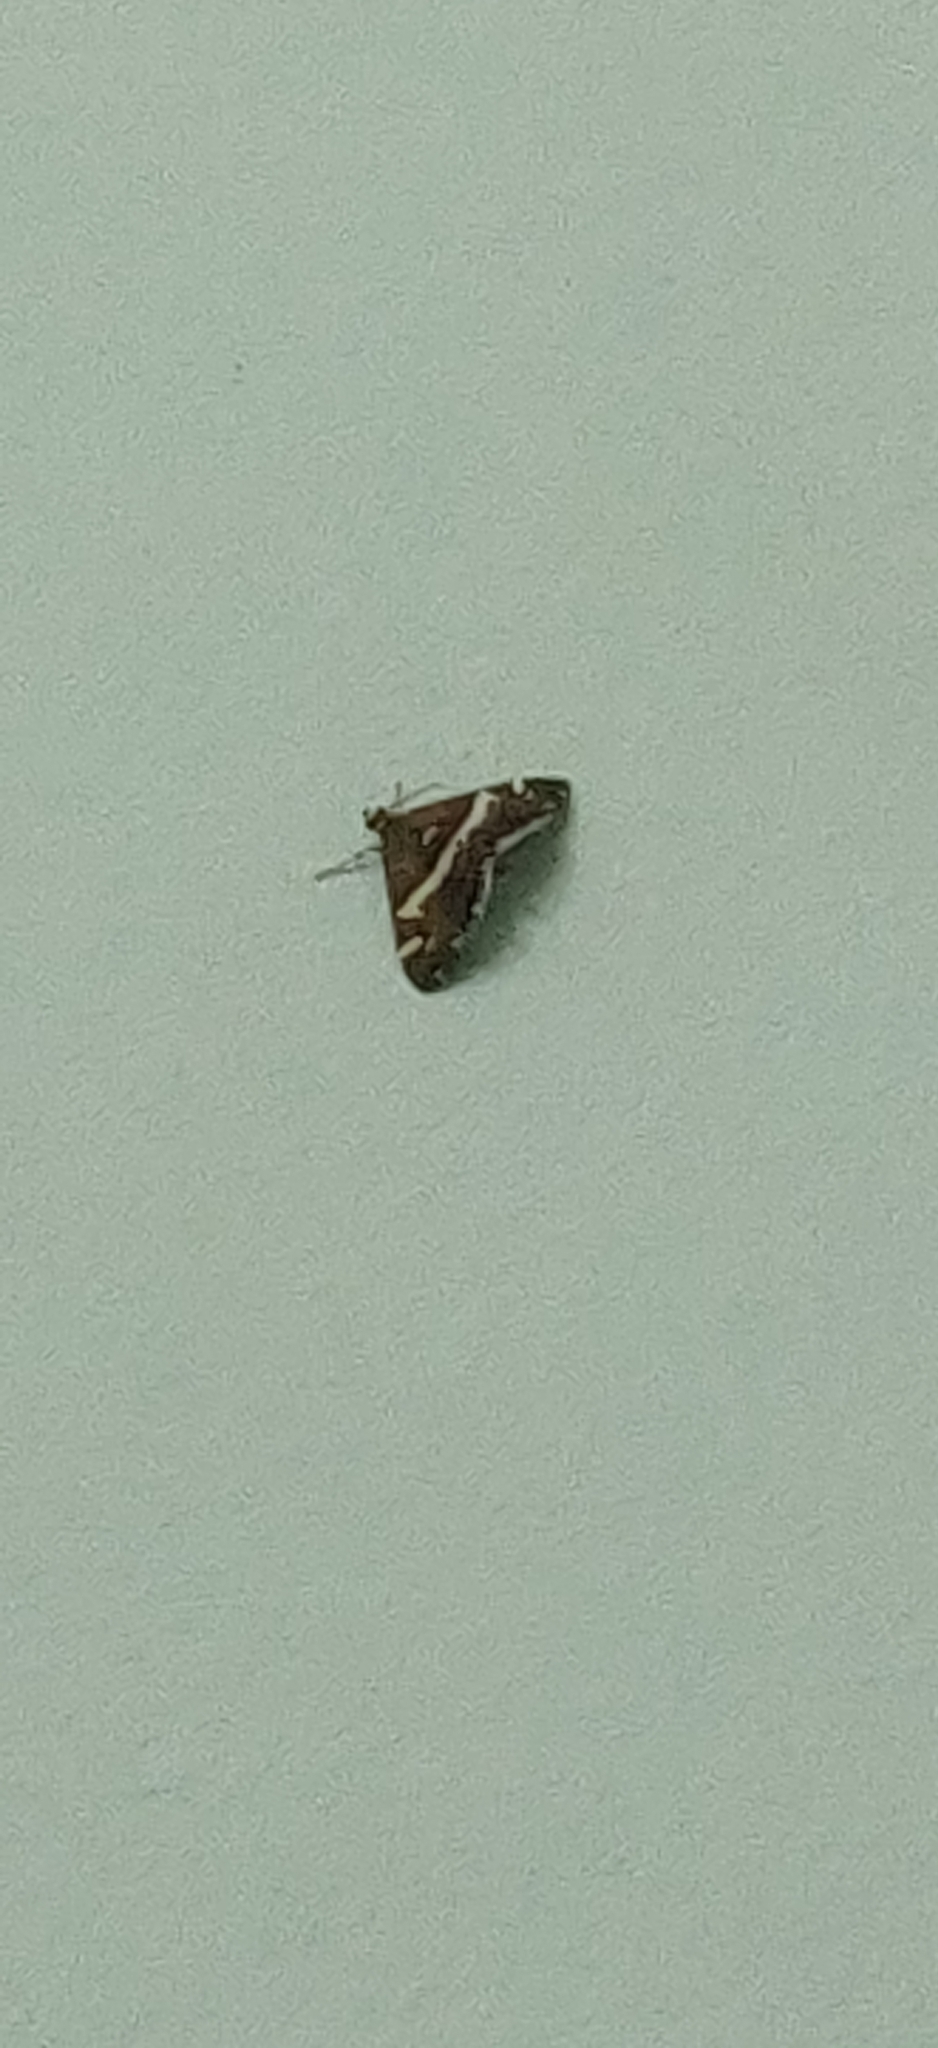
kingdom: Animalia
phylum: Arthropoda
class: Insecta
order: Lepidoptera
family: Crambidae
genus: Spoladea
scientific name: Spoladea recurvalis
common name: Beet webworm moth
